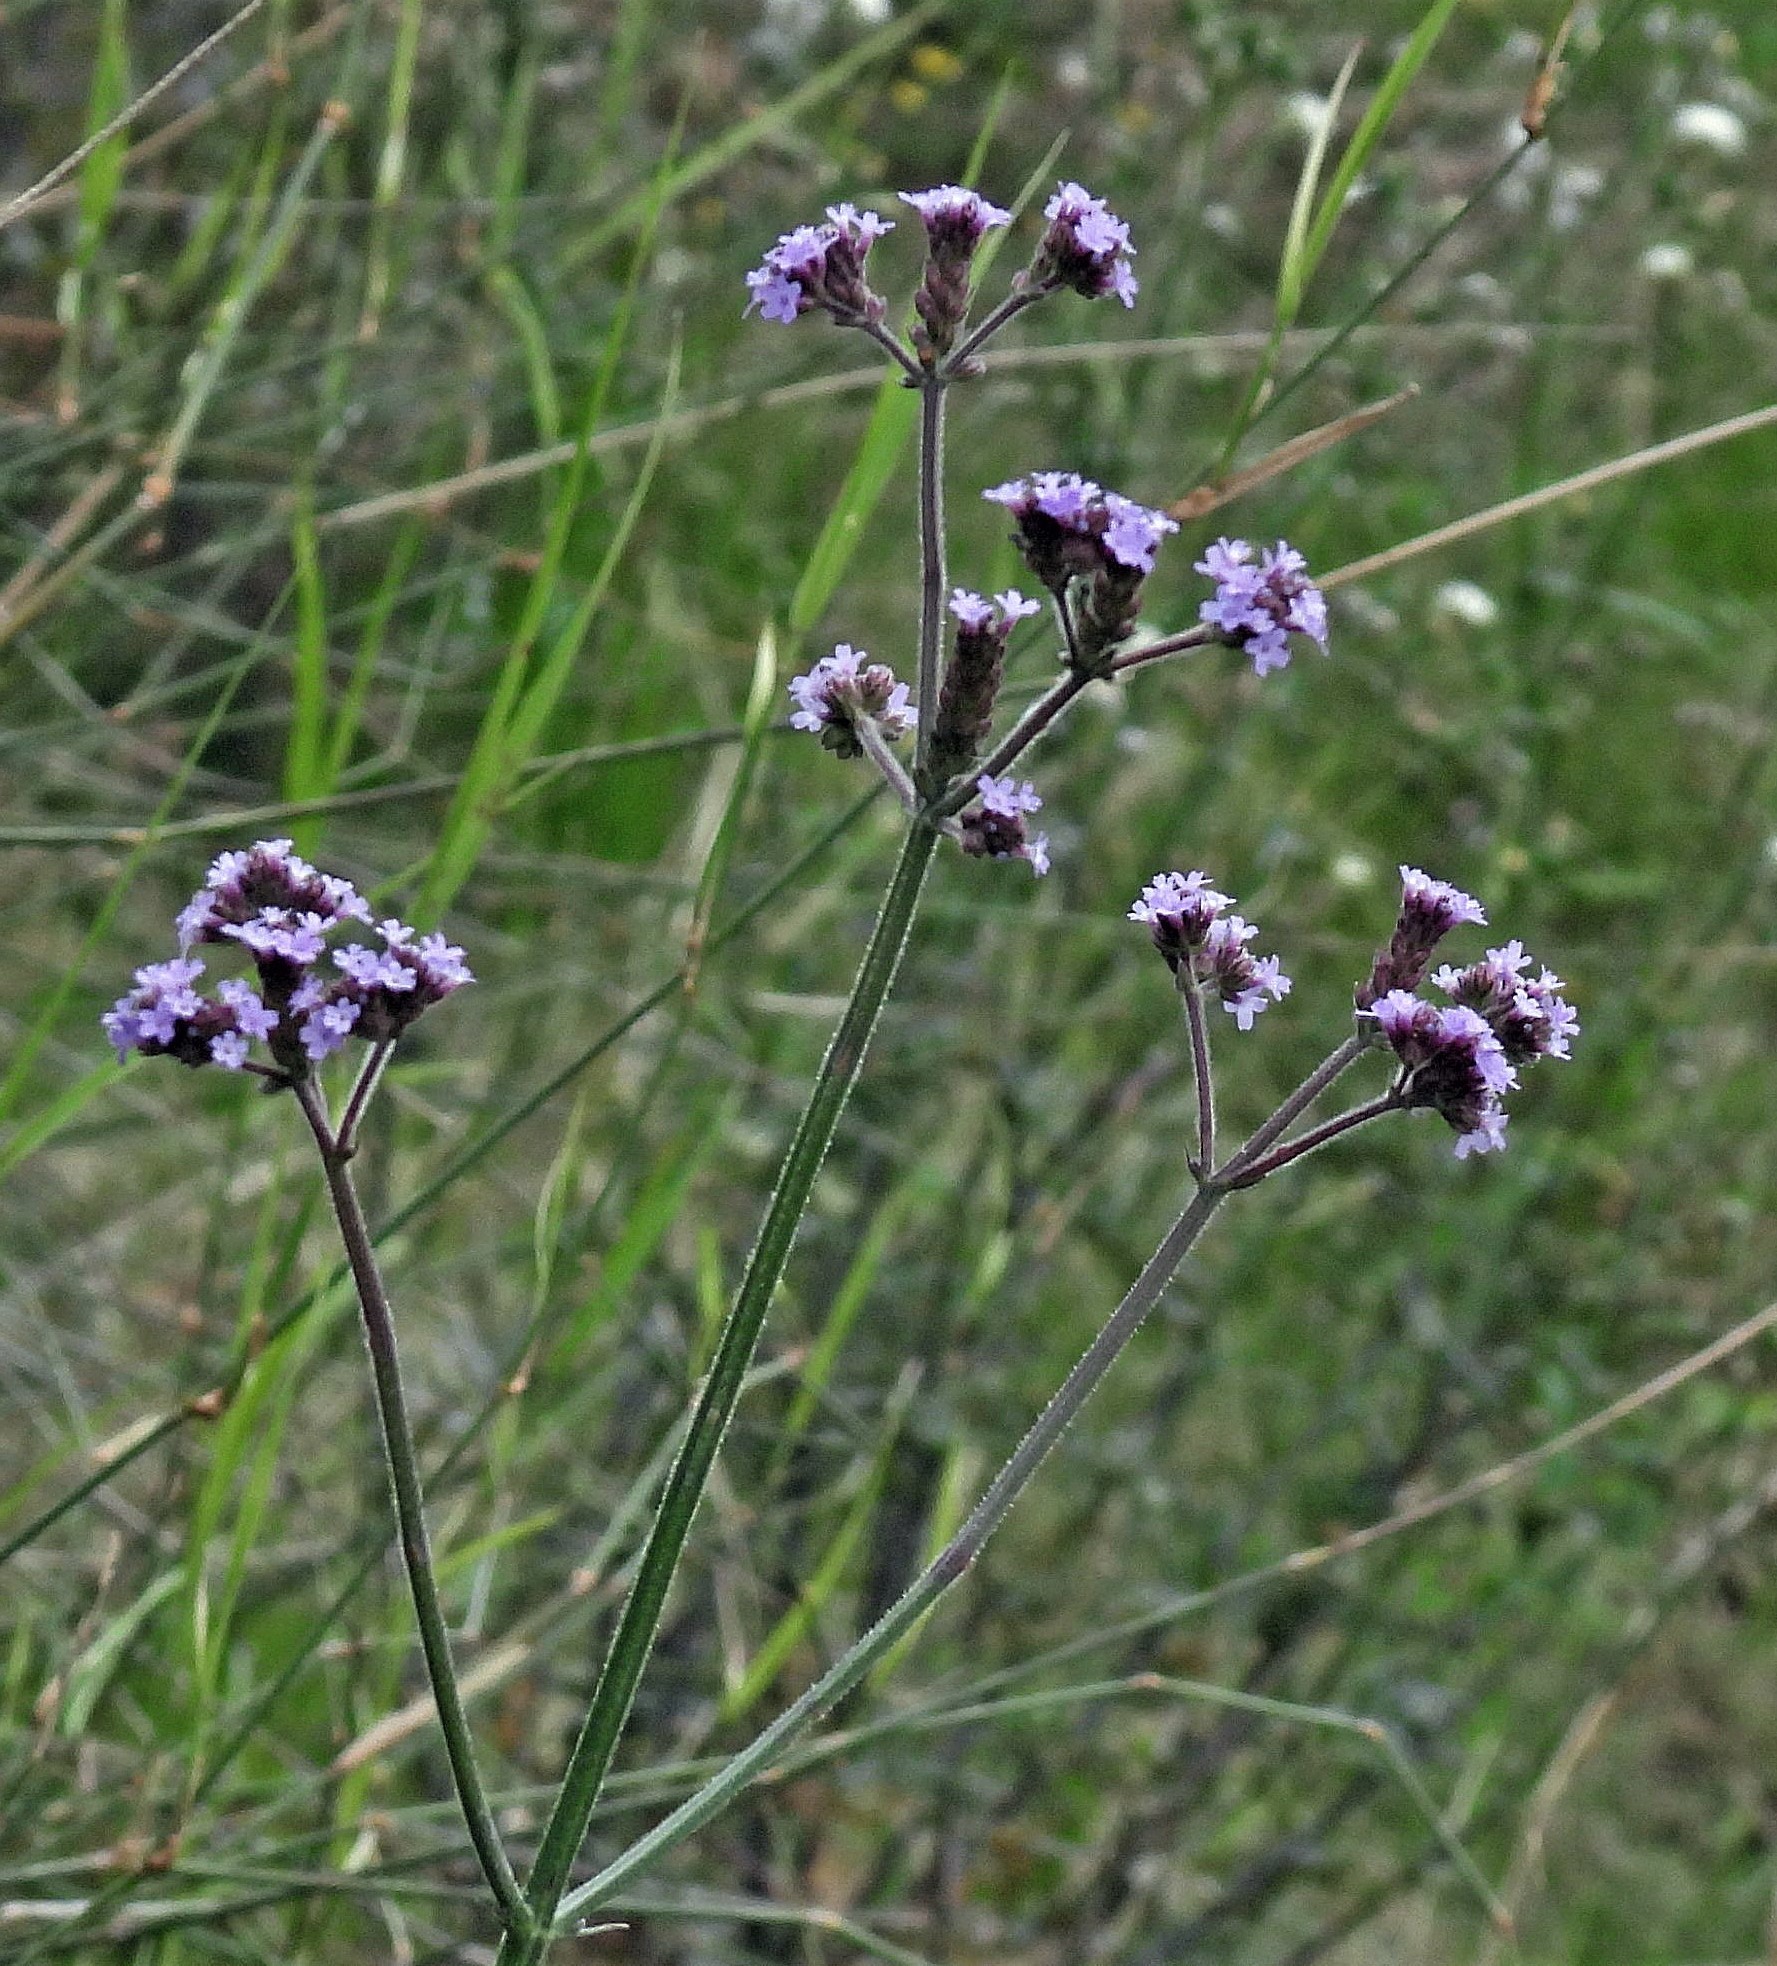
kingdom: Plantae
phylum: Tracheophyta
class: Magnoliopsida
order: Lamiales
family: Verbenaceae
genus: Verbena
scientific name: Verbena bonariensis
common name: Purpletop vervain
